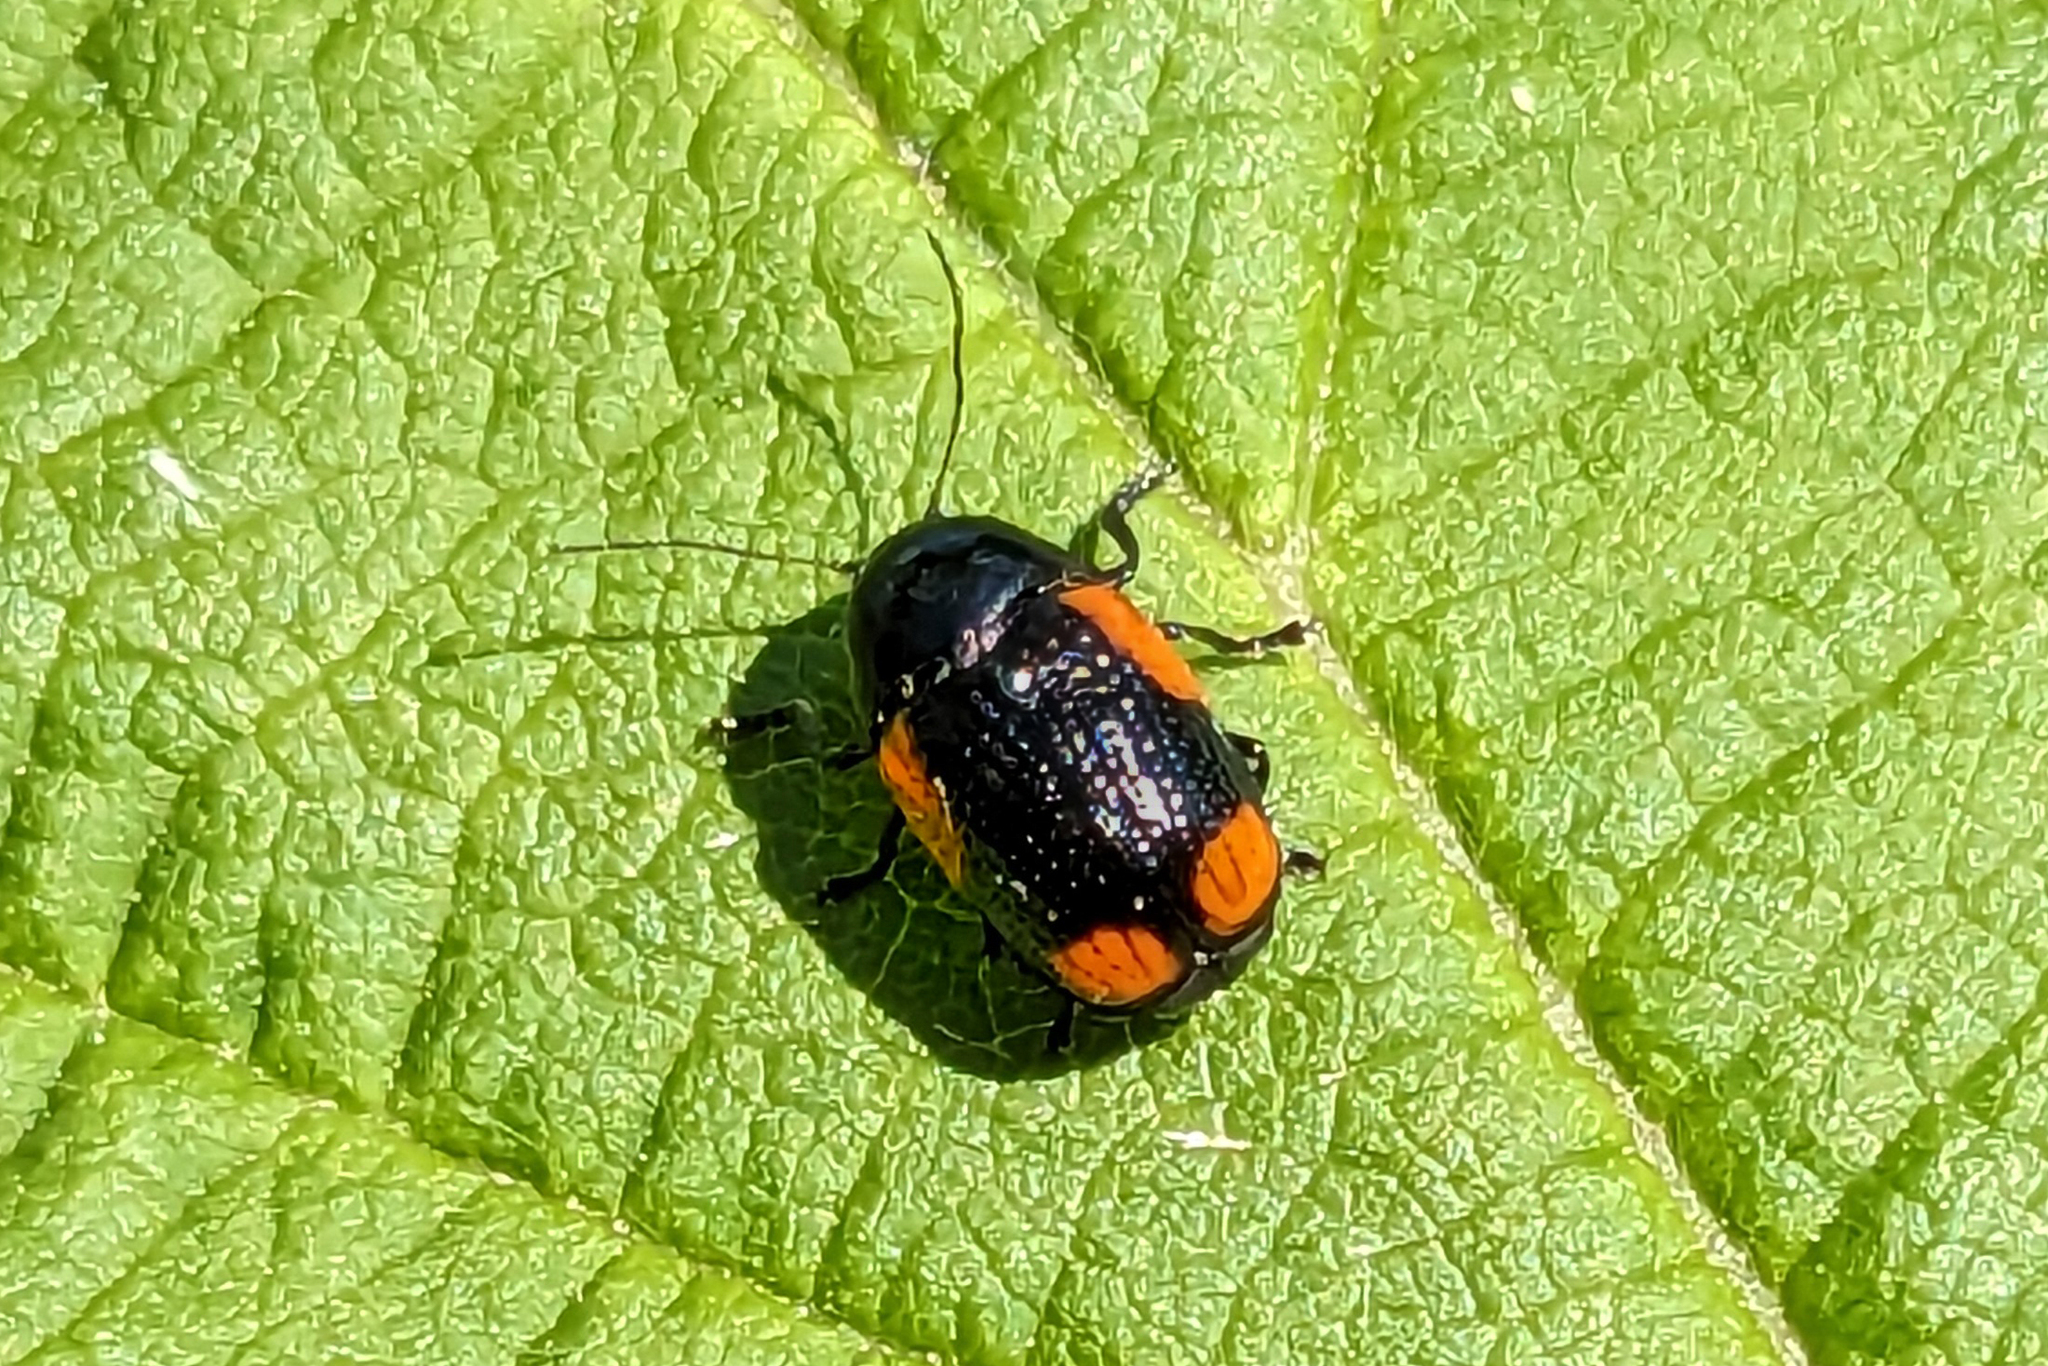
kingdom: Animalia
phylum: Arthropoda
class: Insecta
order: Coleoptera
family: Chrysomelidae
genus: Cryptocephalus
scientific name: Cryptocephalus notatus
